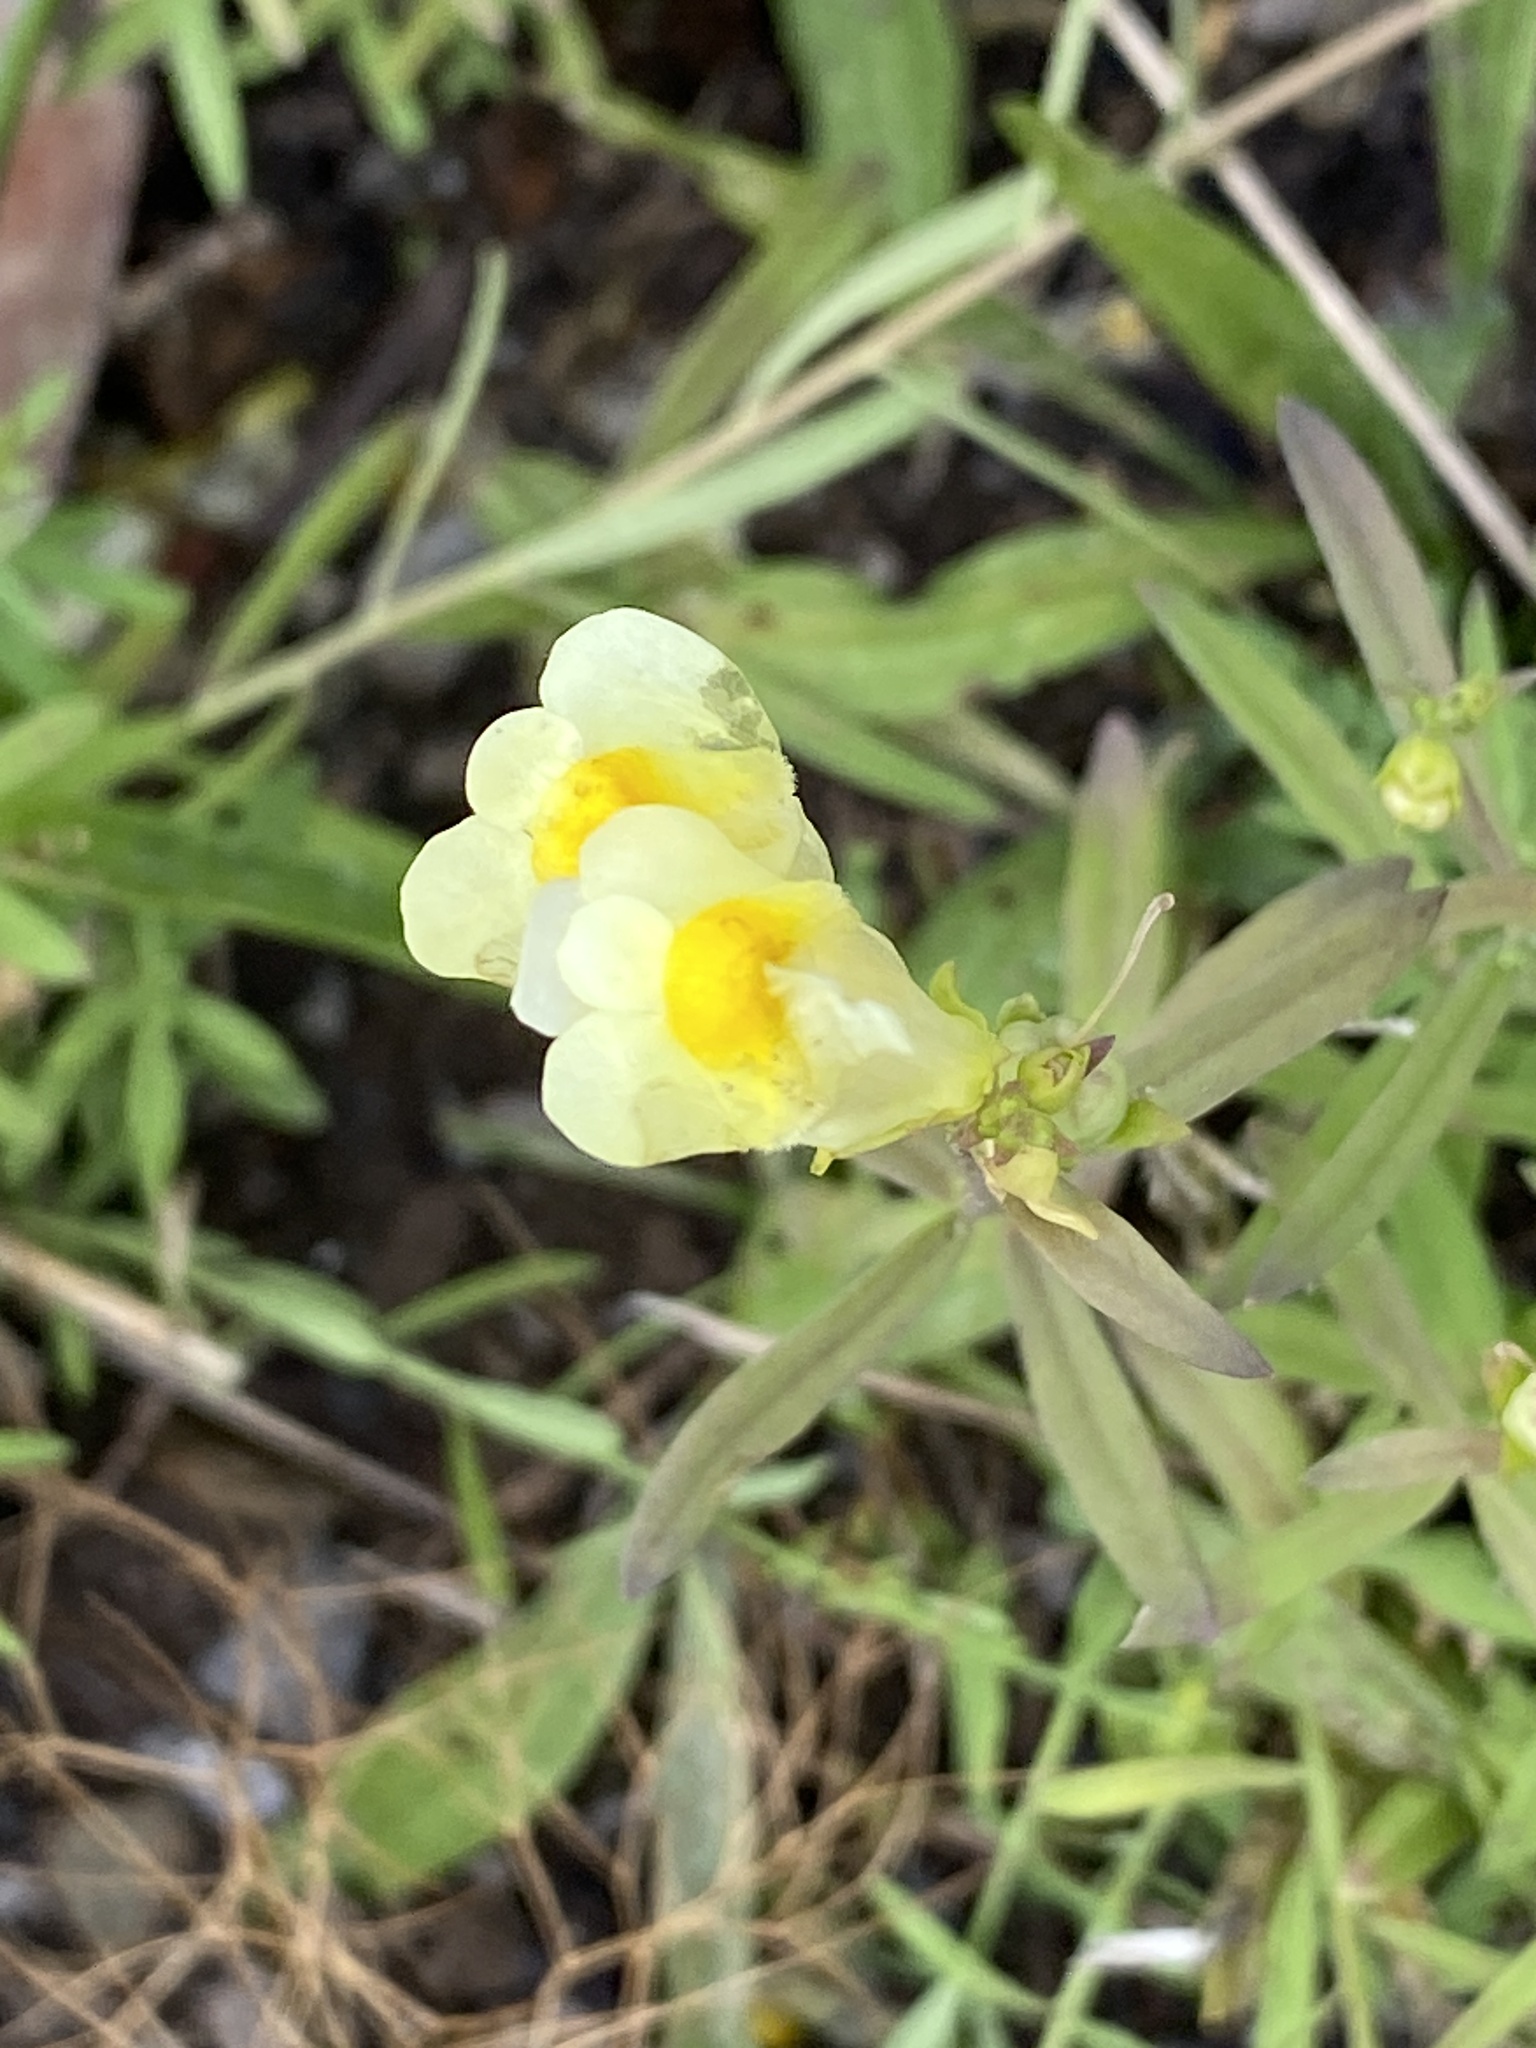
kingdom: Plantae
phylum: Tracheophyta
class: Magnoliopsida
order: Lamiales
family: Plantaginaceae
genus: Linaria
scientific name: Linaria vulgaris
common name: Butter and eggs
